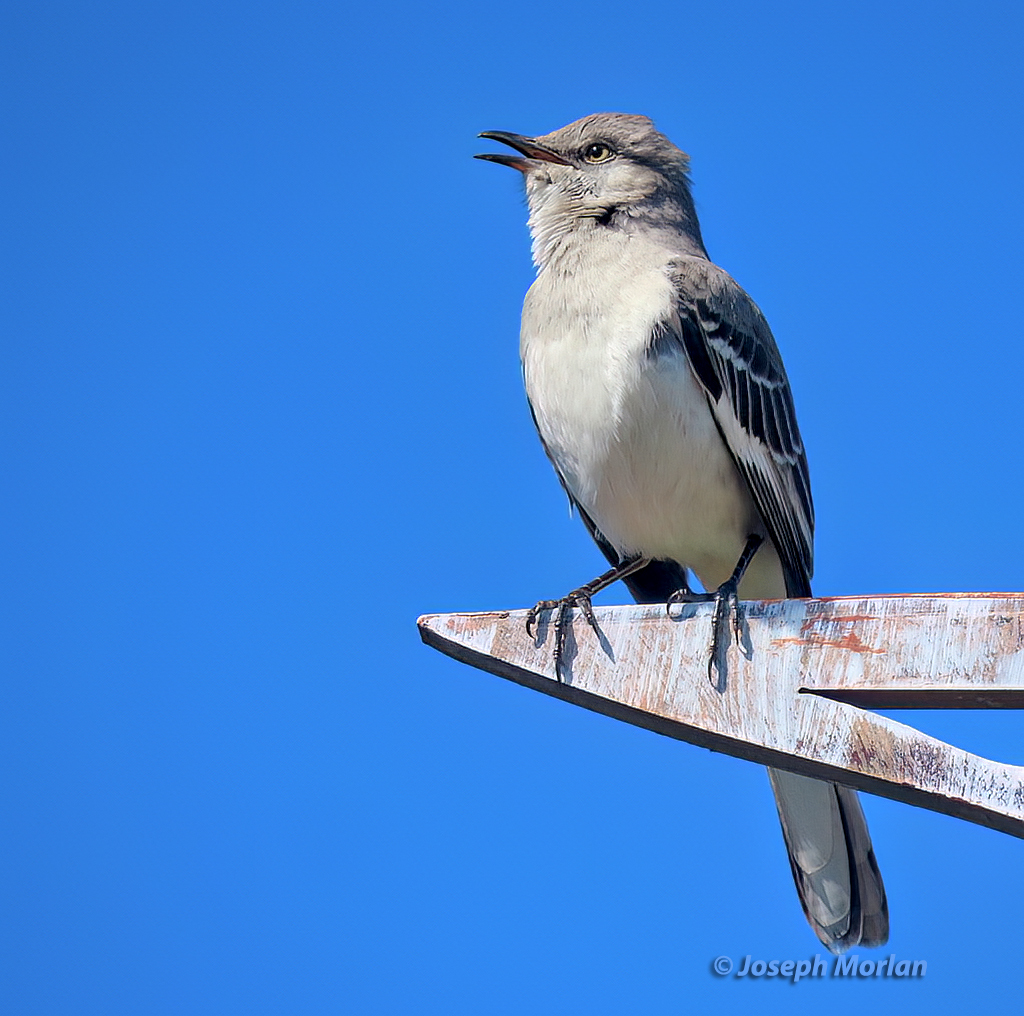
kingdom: Animalia
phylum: Chordata
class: Aves
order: Passeriformes
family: Mimidae
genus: Mimus
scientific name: Mimus polyglottos
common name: Northern mockingbird
